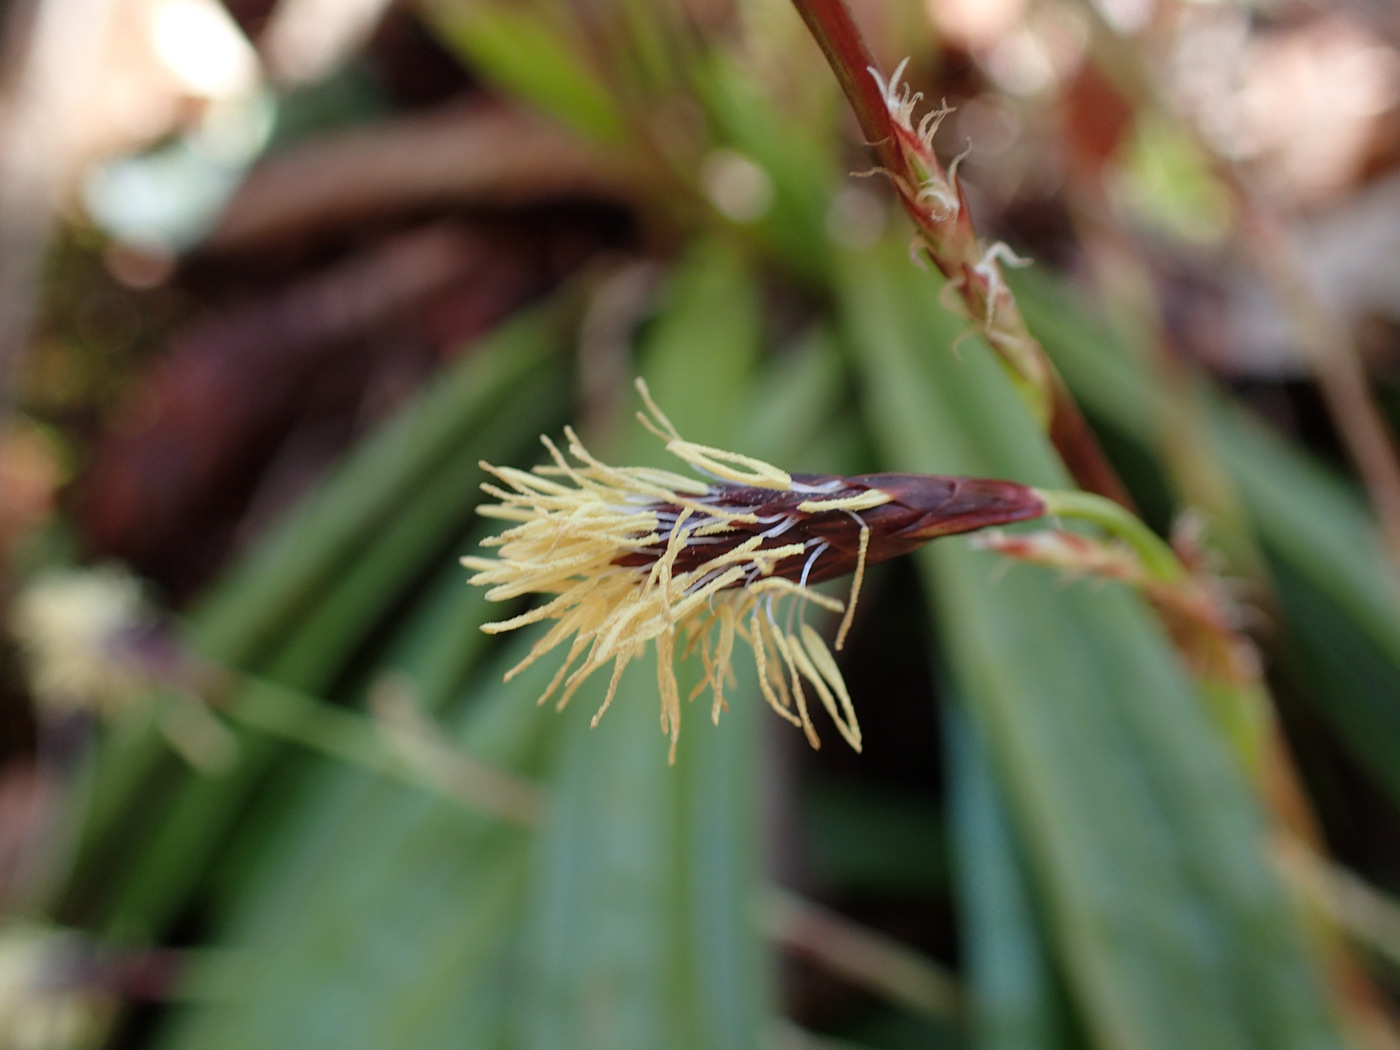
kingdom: Plantae
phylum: Tracheophyta
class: Liliopsida
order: Poales
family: Cyperaceae
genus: Carex
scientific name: Carex plantaginea
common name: Plantain-leaved sedge
